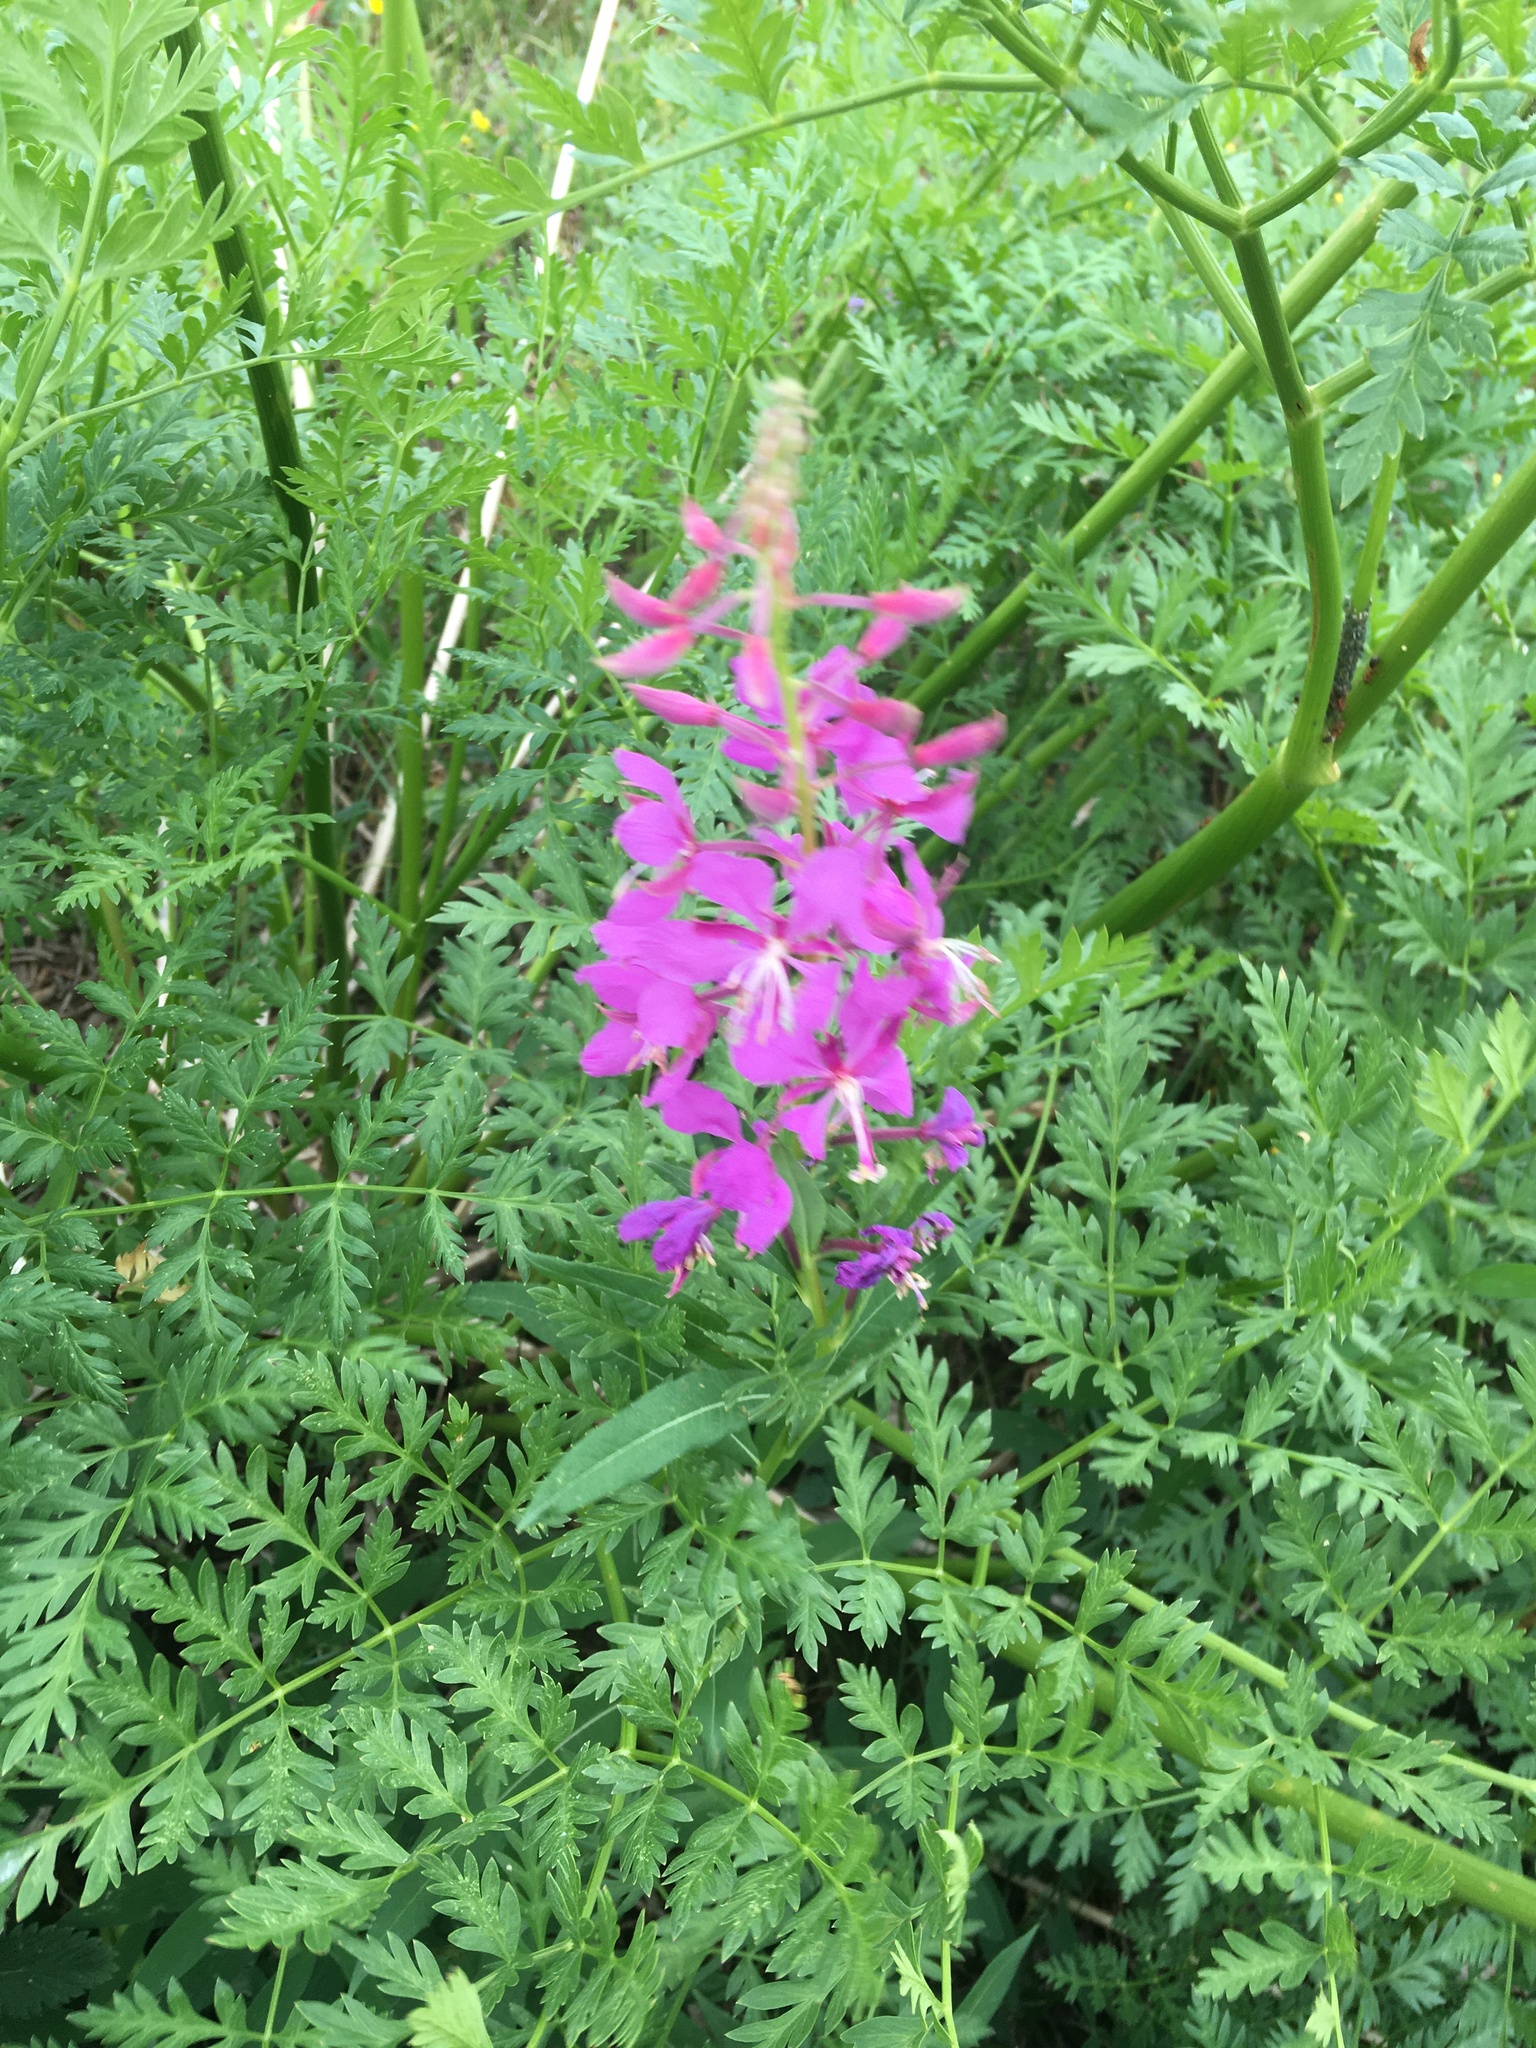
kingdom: Plantae
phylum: Tracheophyta
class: Magnoliopsida
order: Myrtales
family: Onagraceae
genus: Chamaenerion
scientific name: Chamaenerion angustifolium
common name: Fireweed
